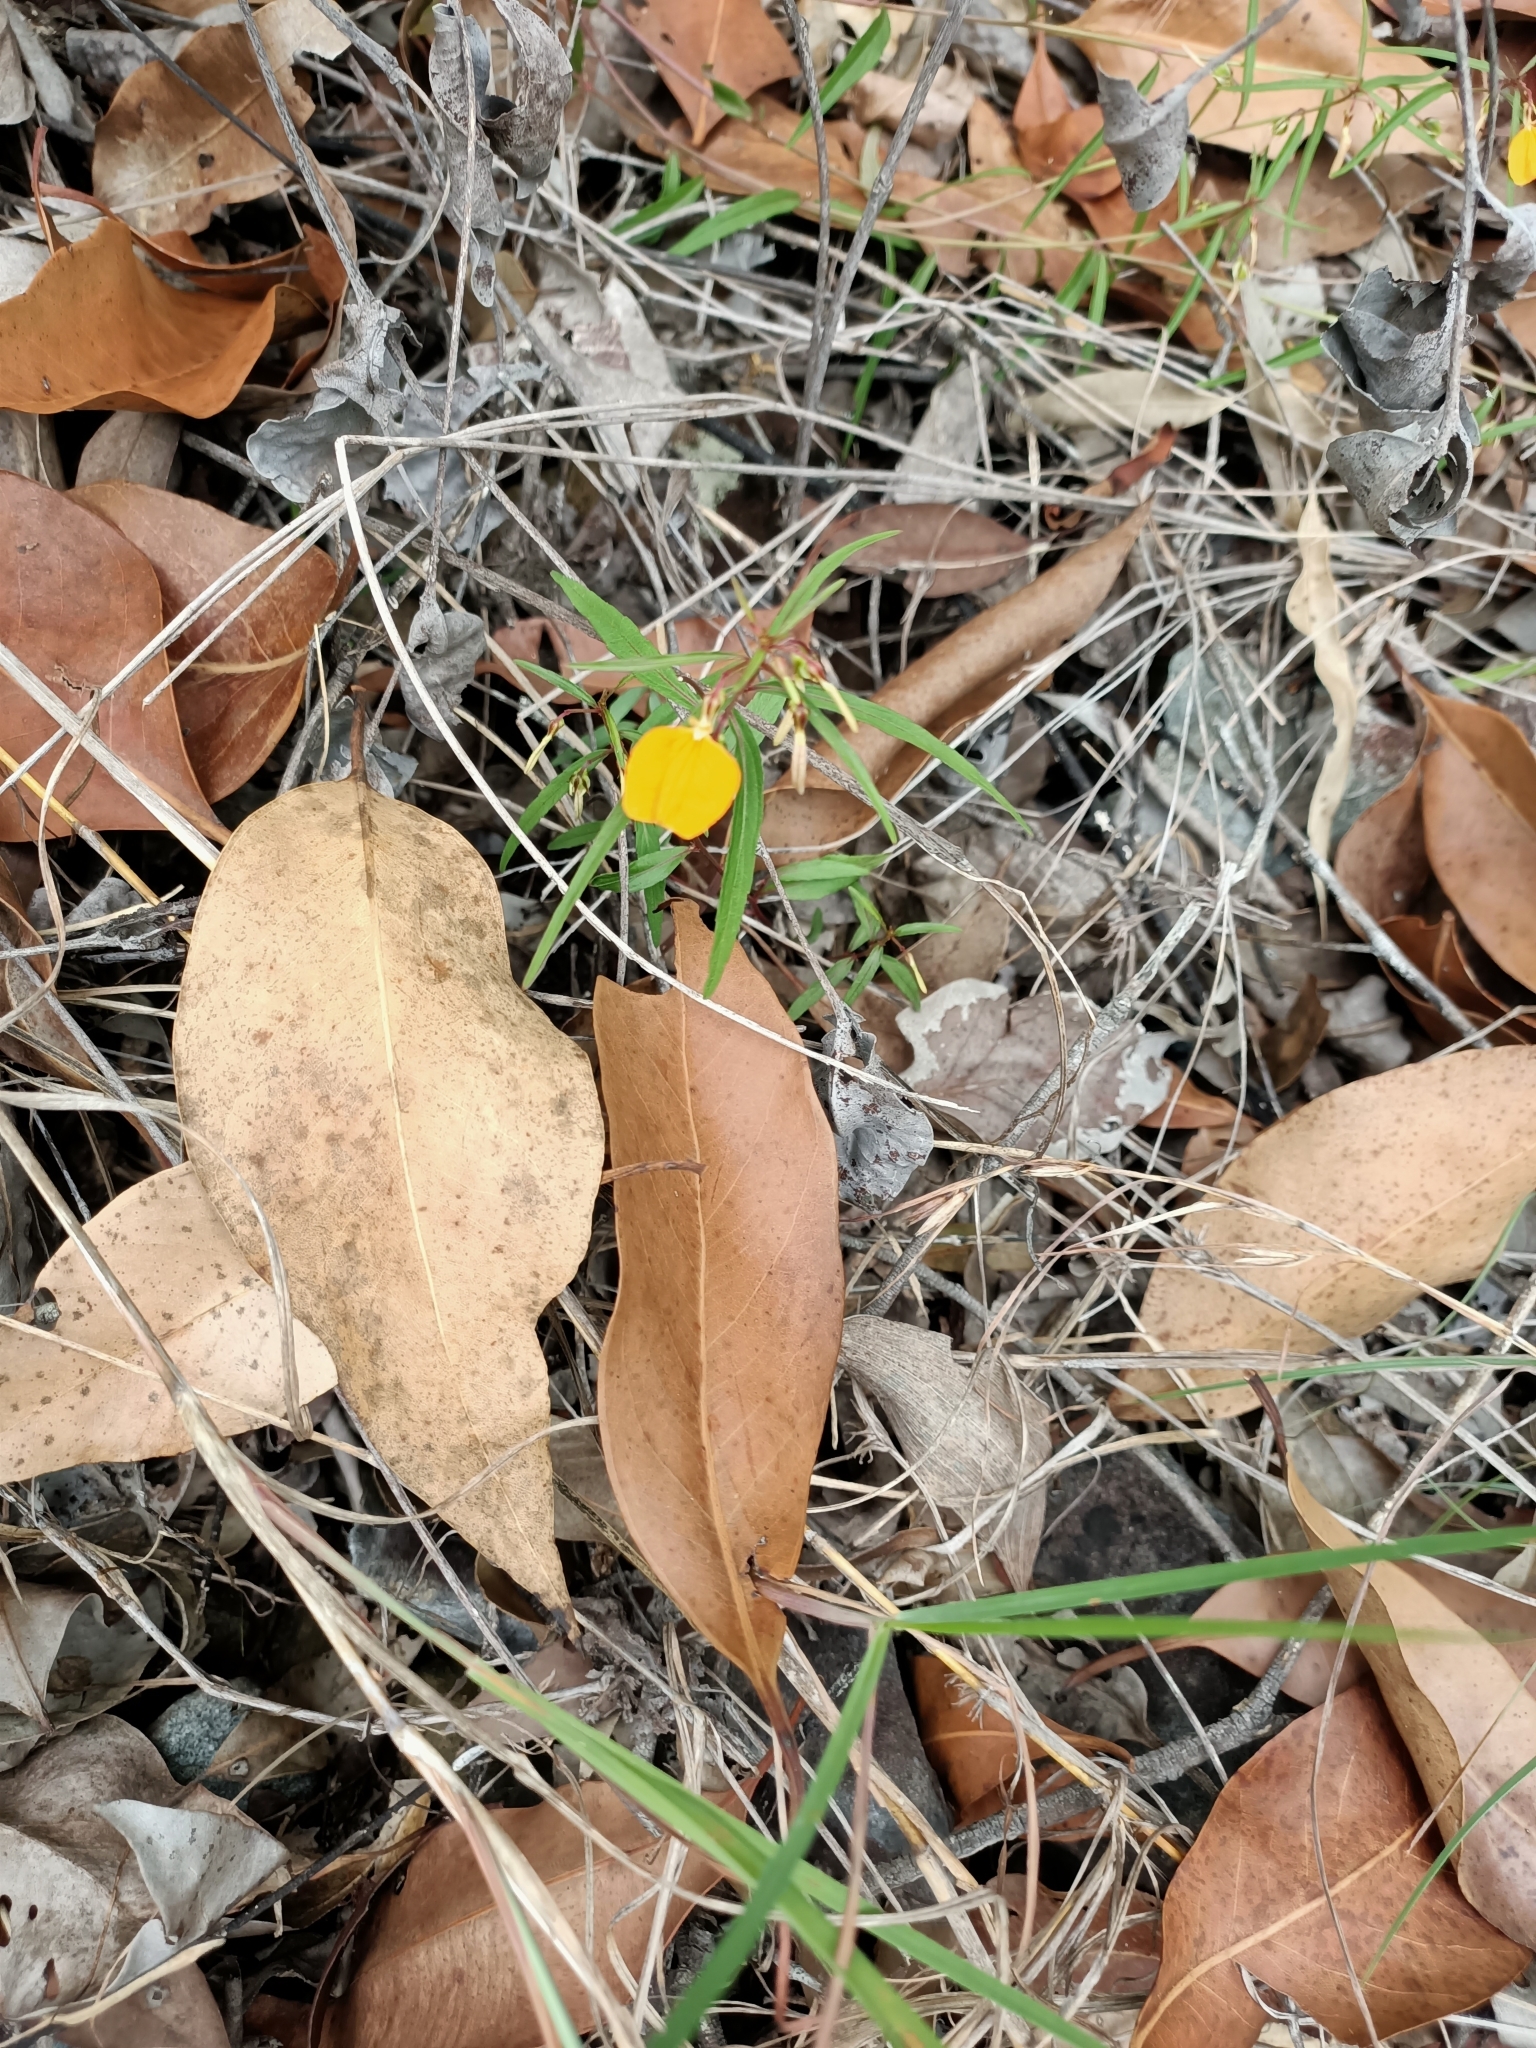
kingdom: Plantae
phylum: Tracheophyta
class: Magnoliopsida
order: Malpighiales
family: Violaceae
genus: Pigea
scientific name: Pigea stellarioides
